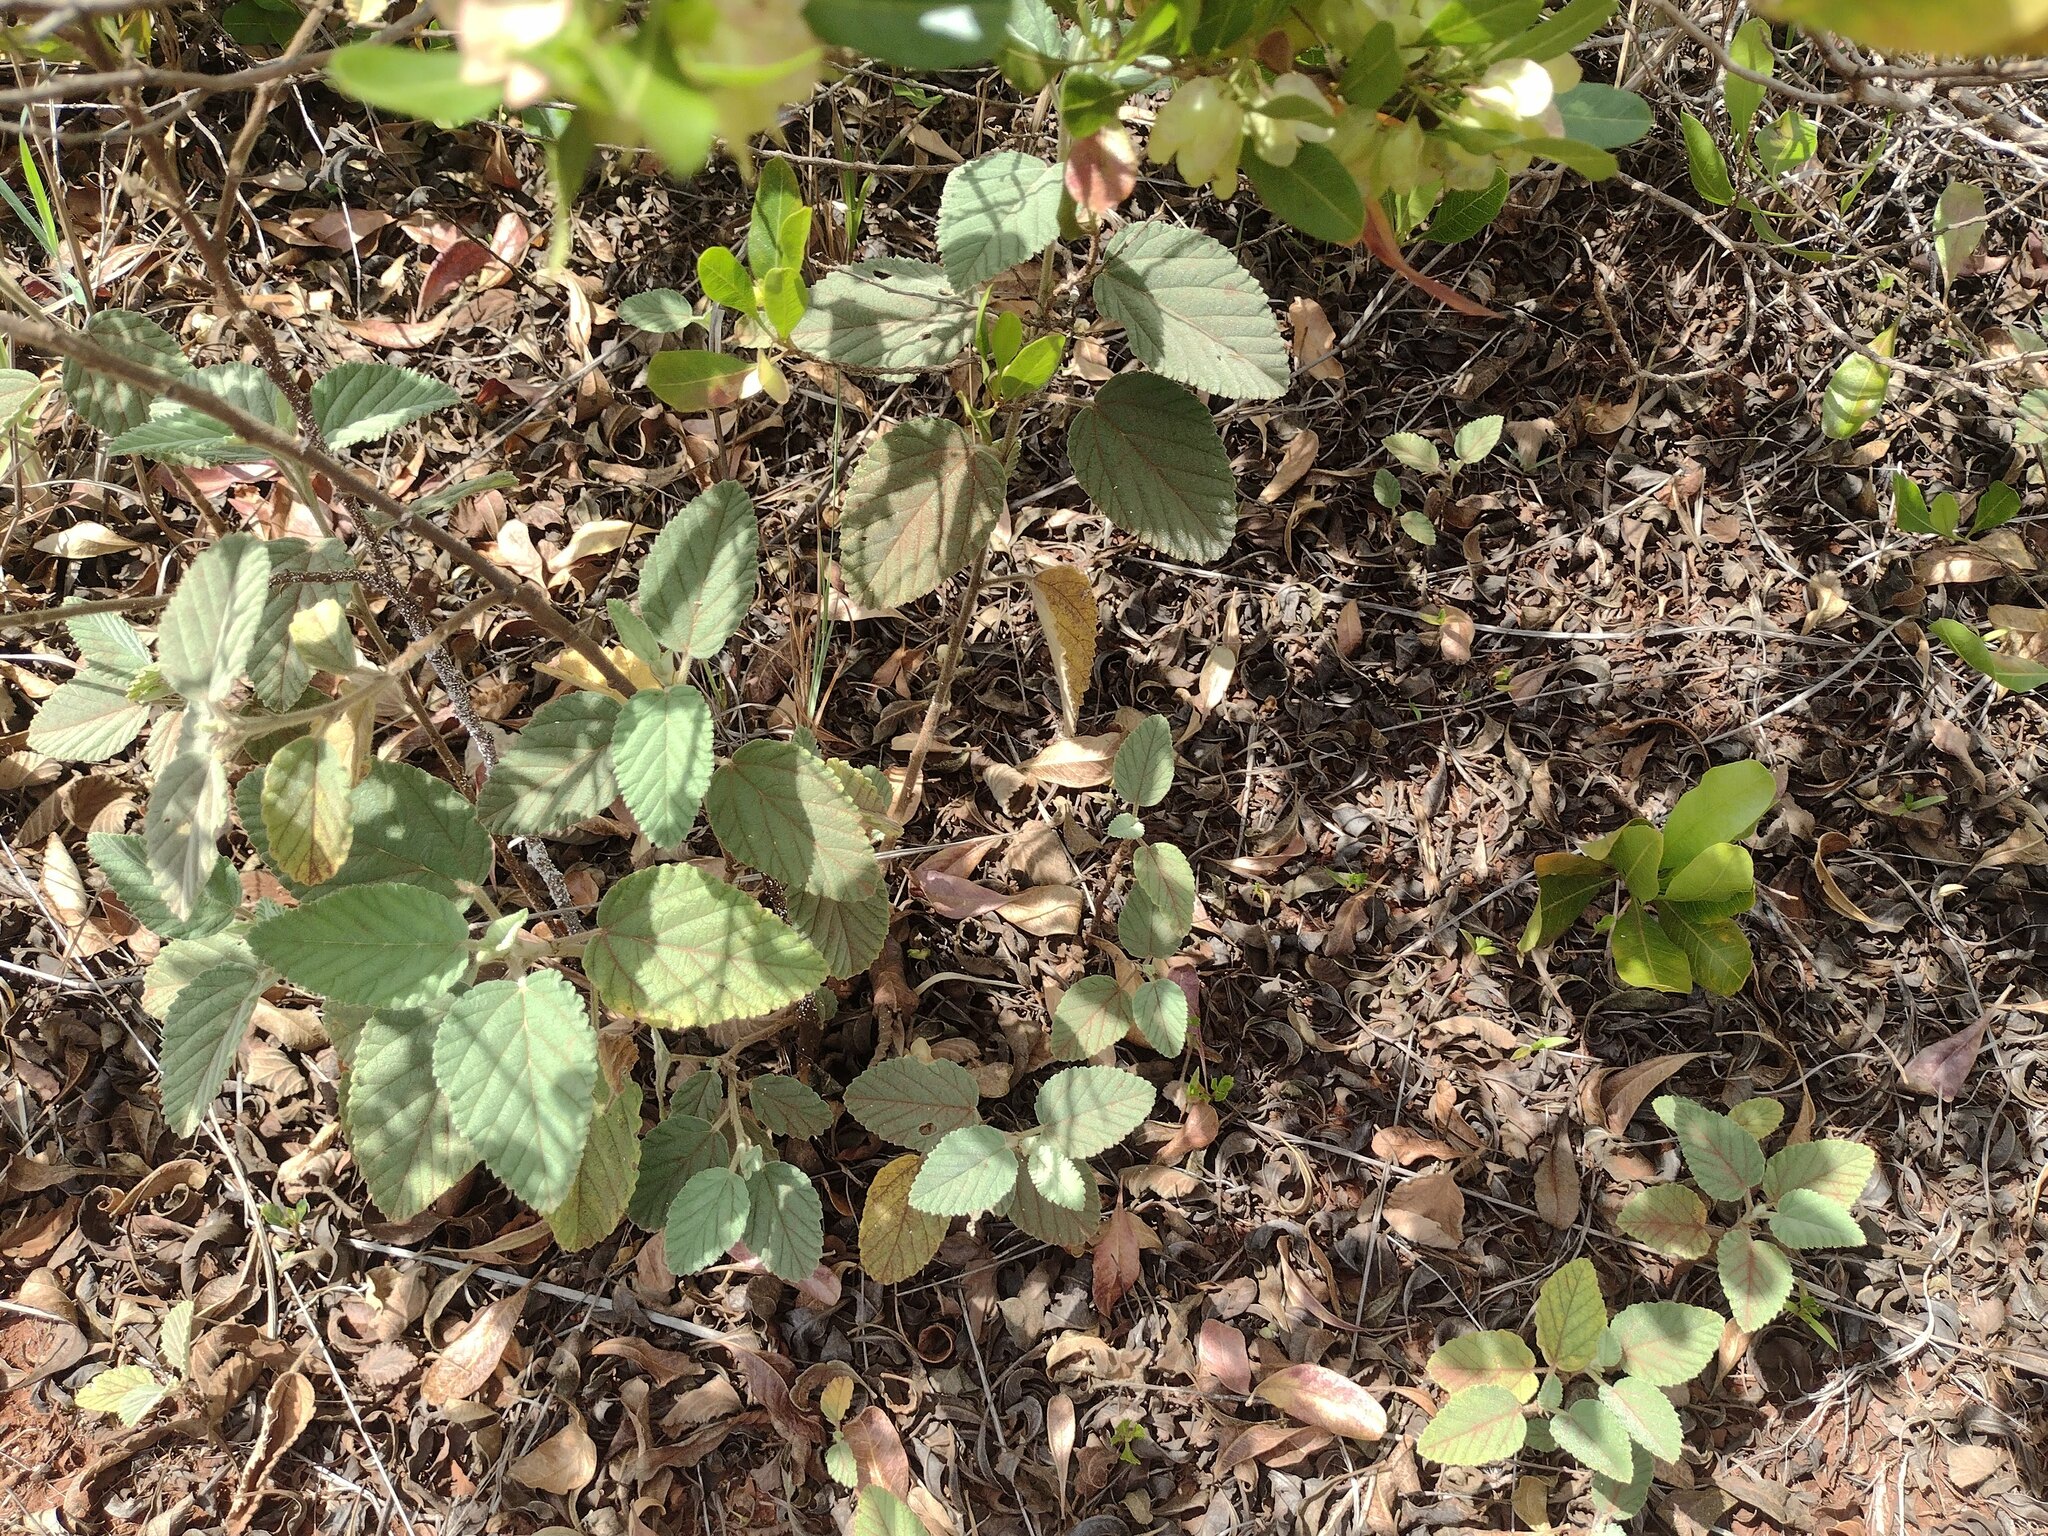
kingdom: Plantae
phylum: Tracheophyta
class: Magnoliopsida
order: Malvales
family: Malvaceae
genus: Waltheria
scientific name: Waltheria indica
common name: Leather-coat
